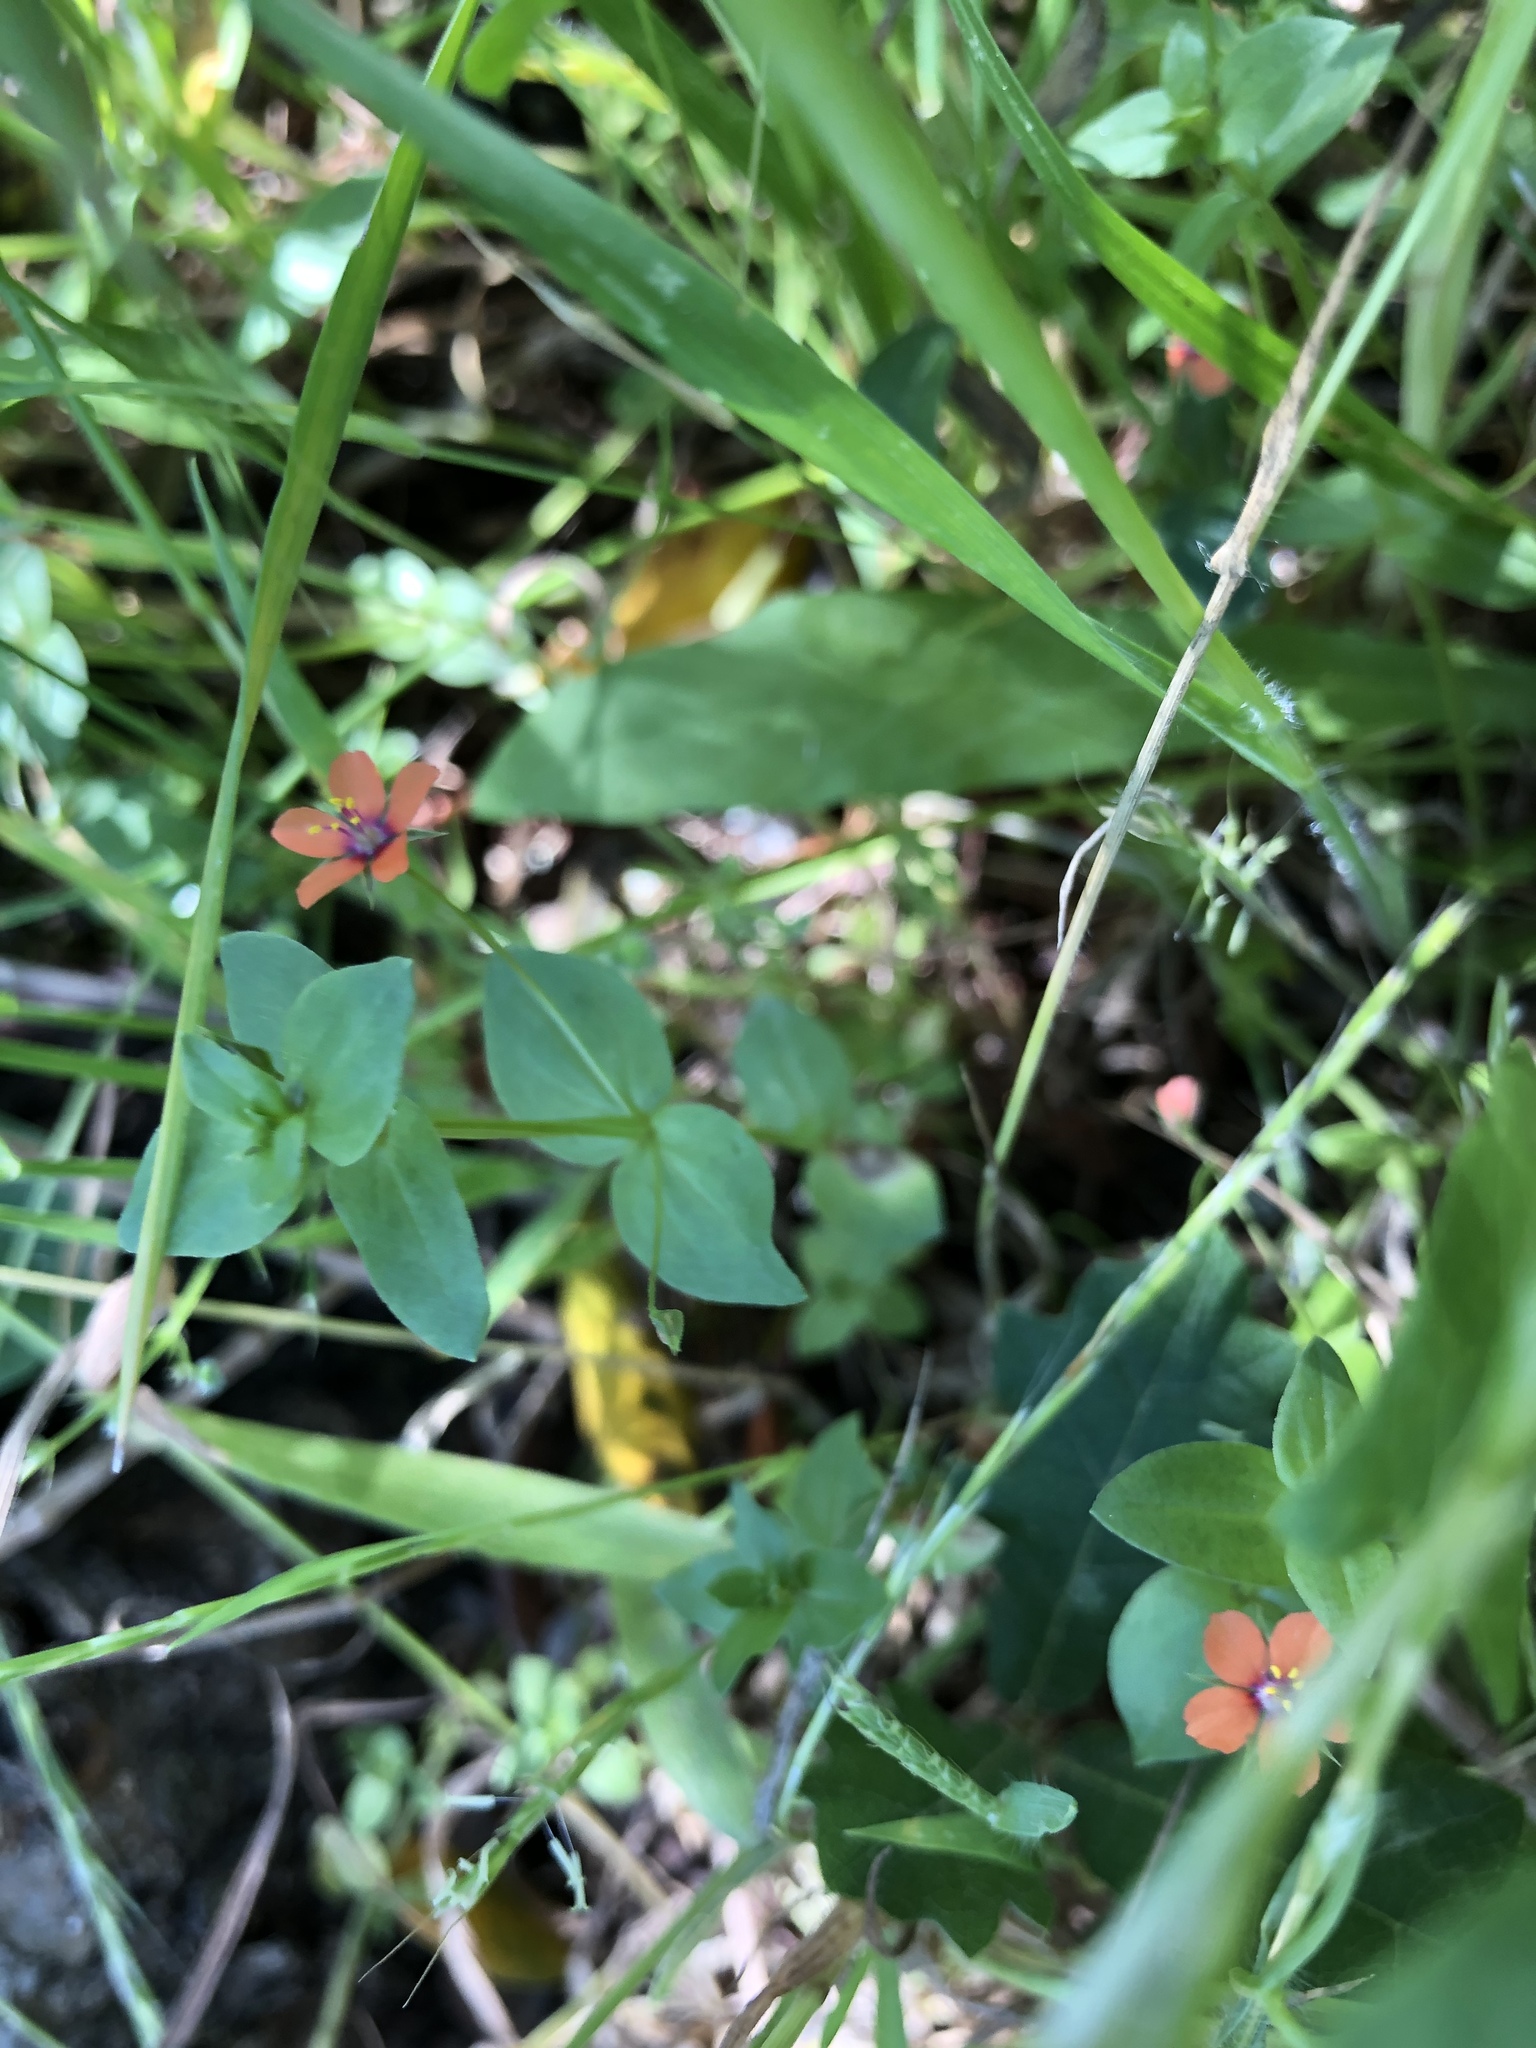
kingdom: Plantae
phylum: Tracheophyta
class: Magnoliopsida
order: Ericales
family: Primulaceae
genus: Lysimachia
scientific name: Lysimachia arvensis
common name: Scarlet pimpernel
